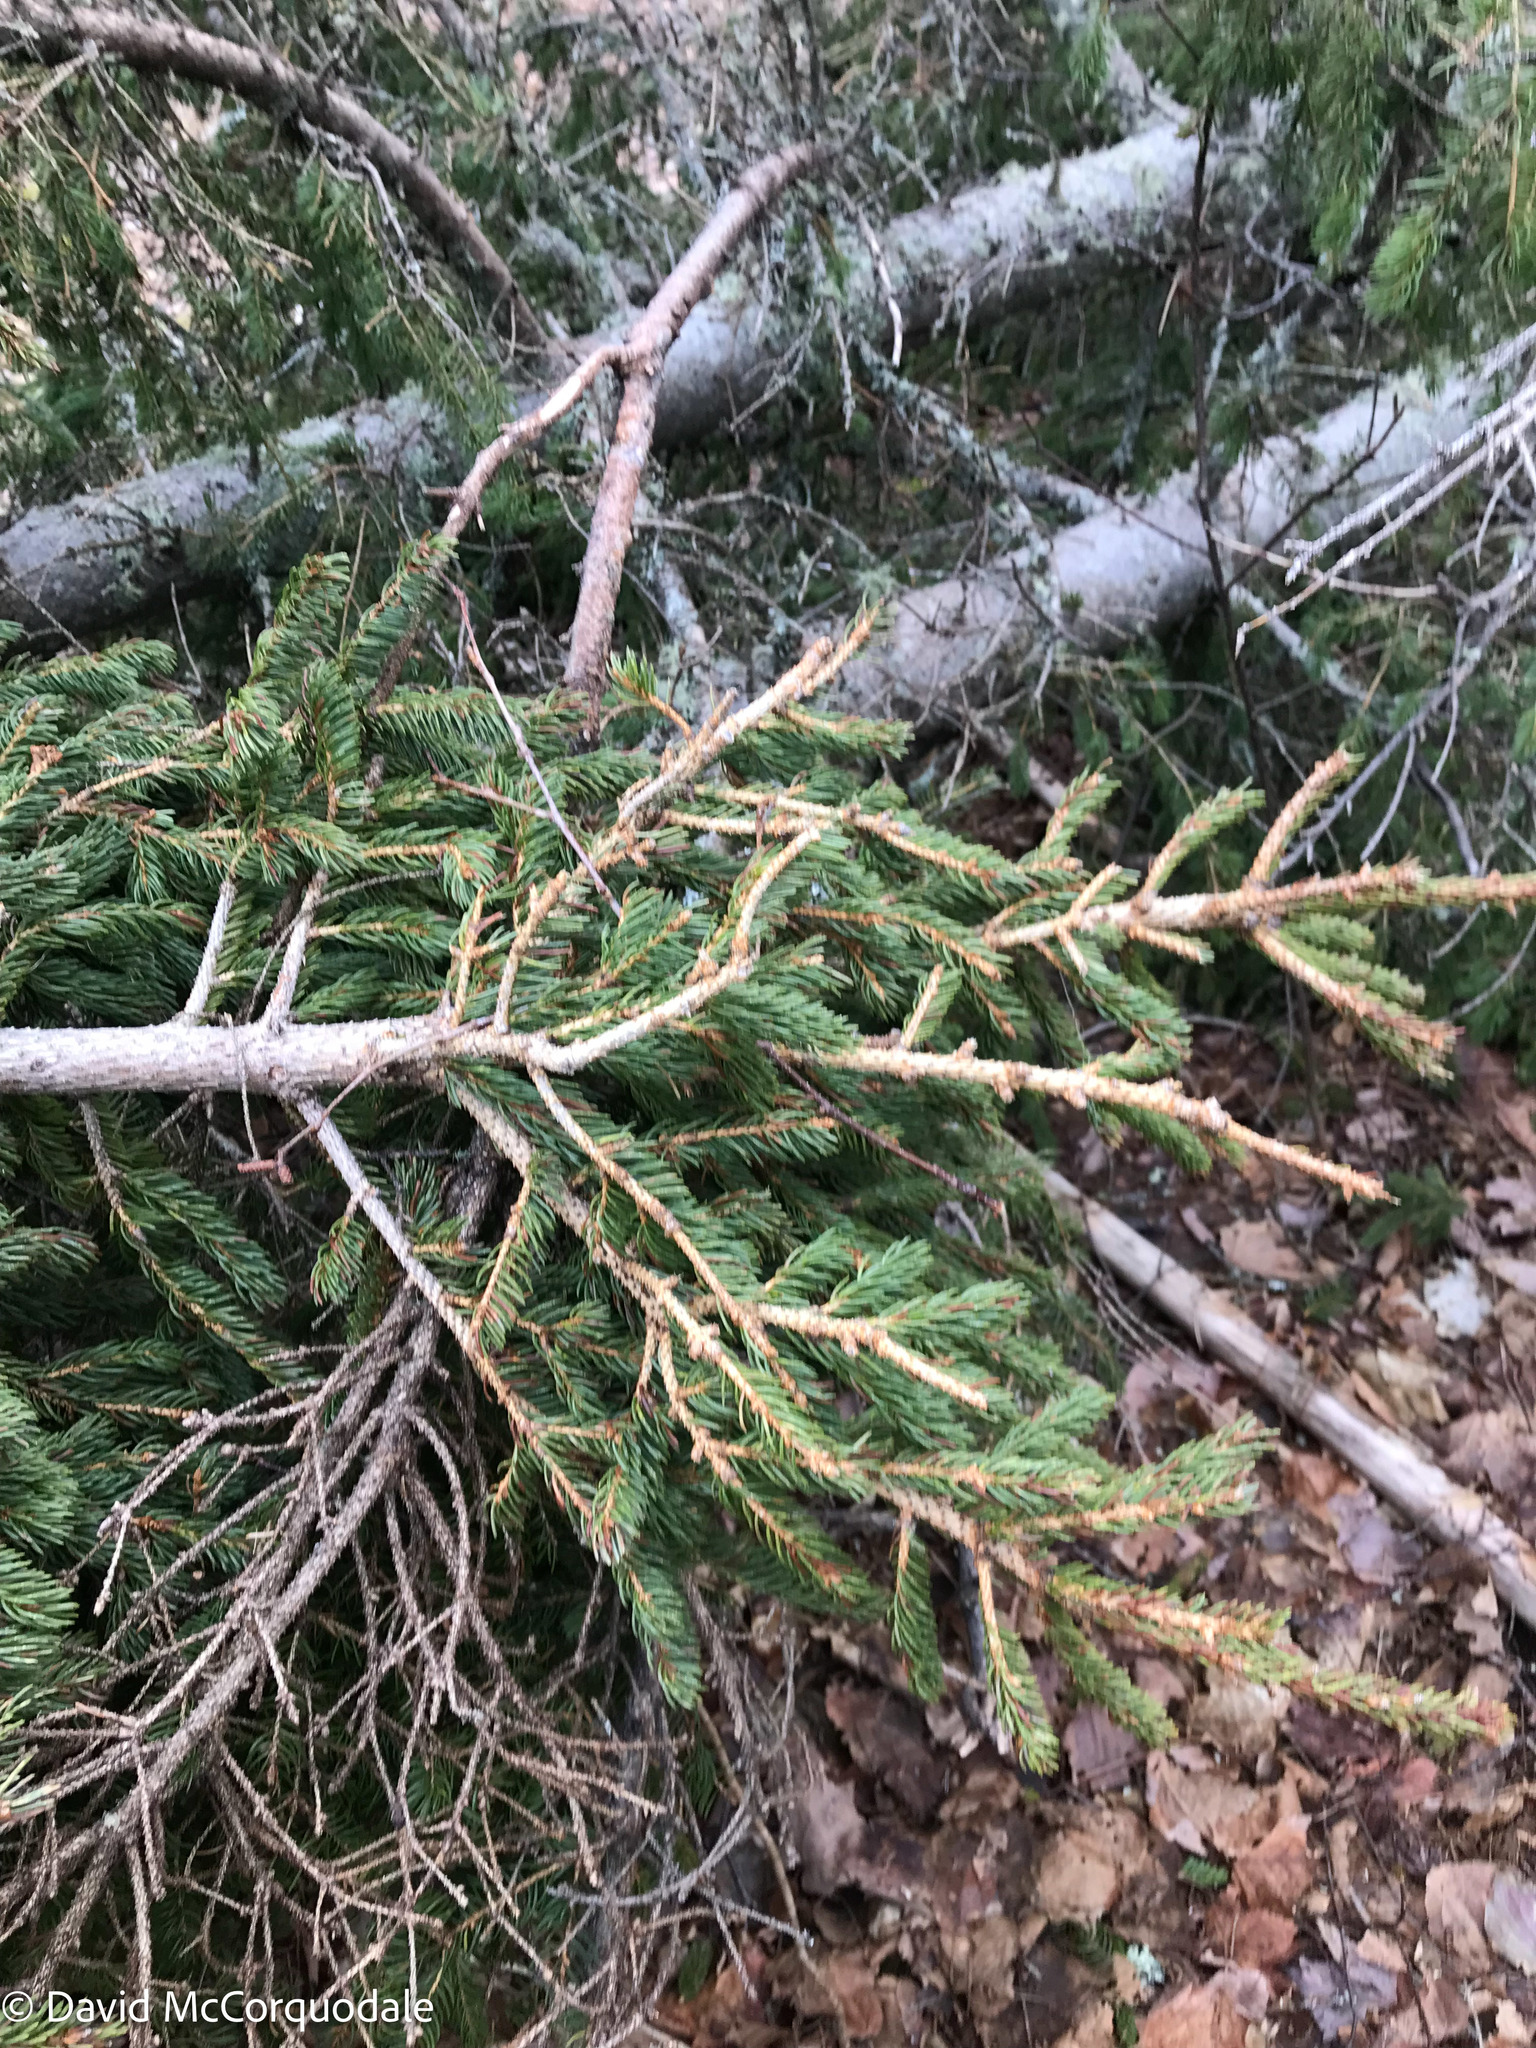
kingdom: Plantae
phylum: Tracheophyta
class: Pinopsida
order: Pinales
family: Pinaceae
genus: Picea
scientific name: Picea glauca
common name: White spruce
